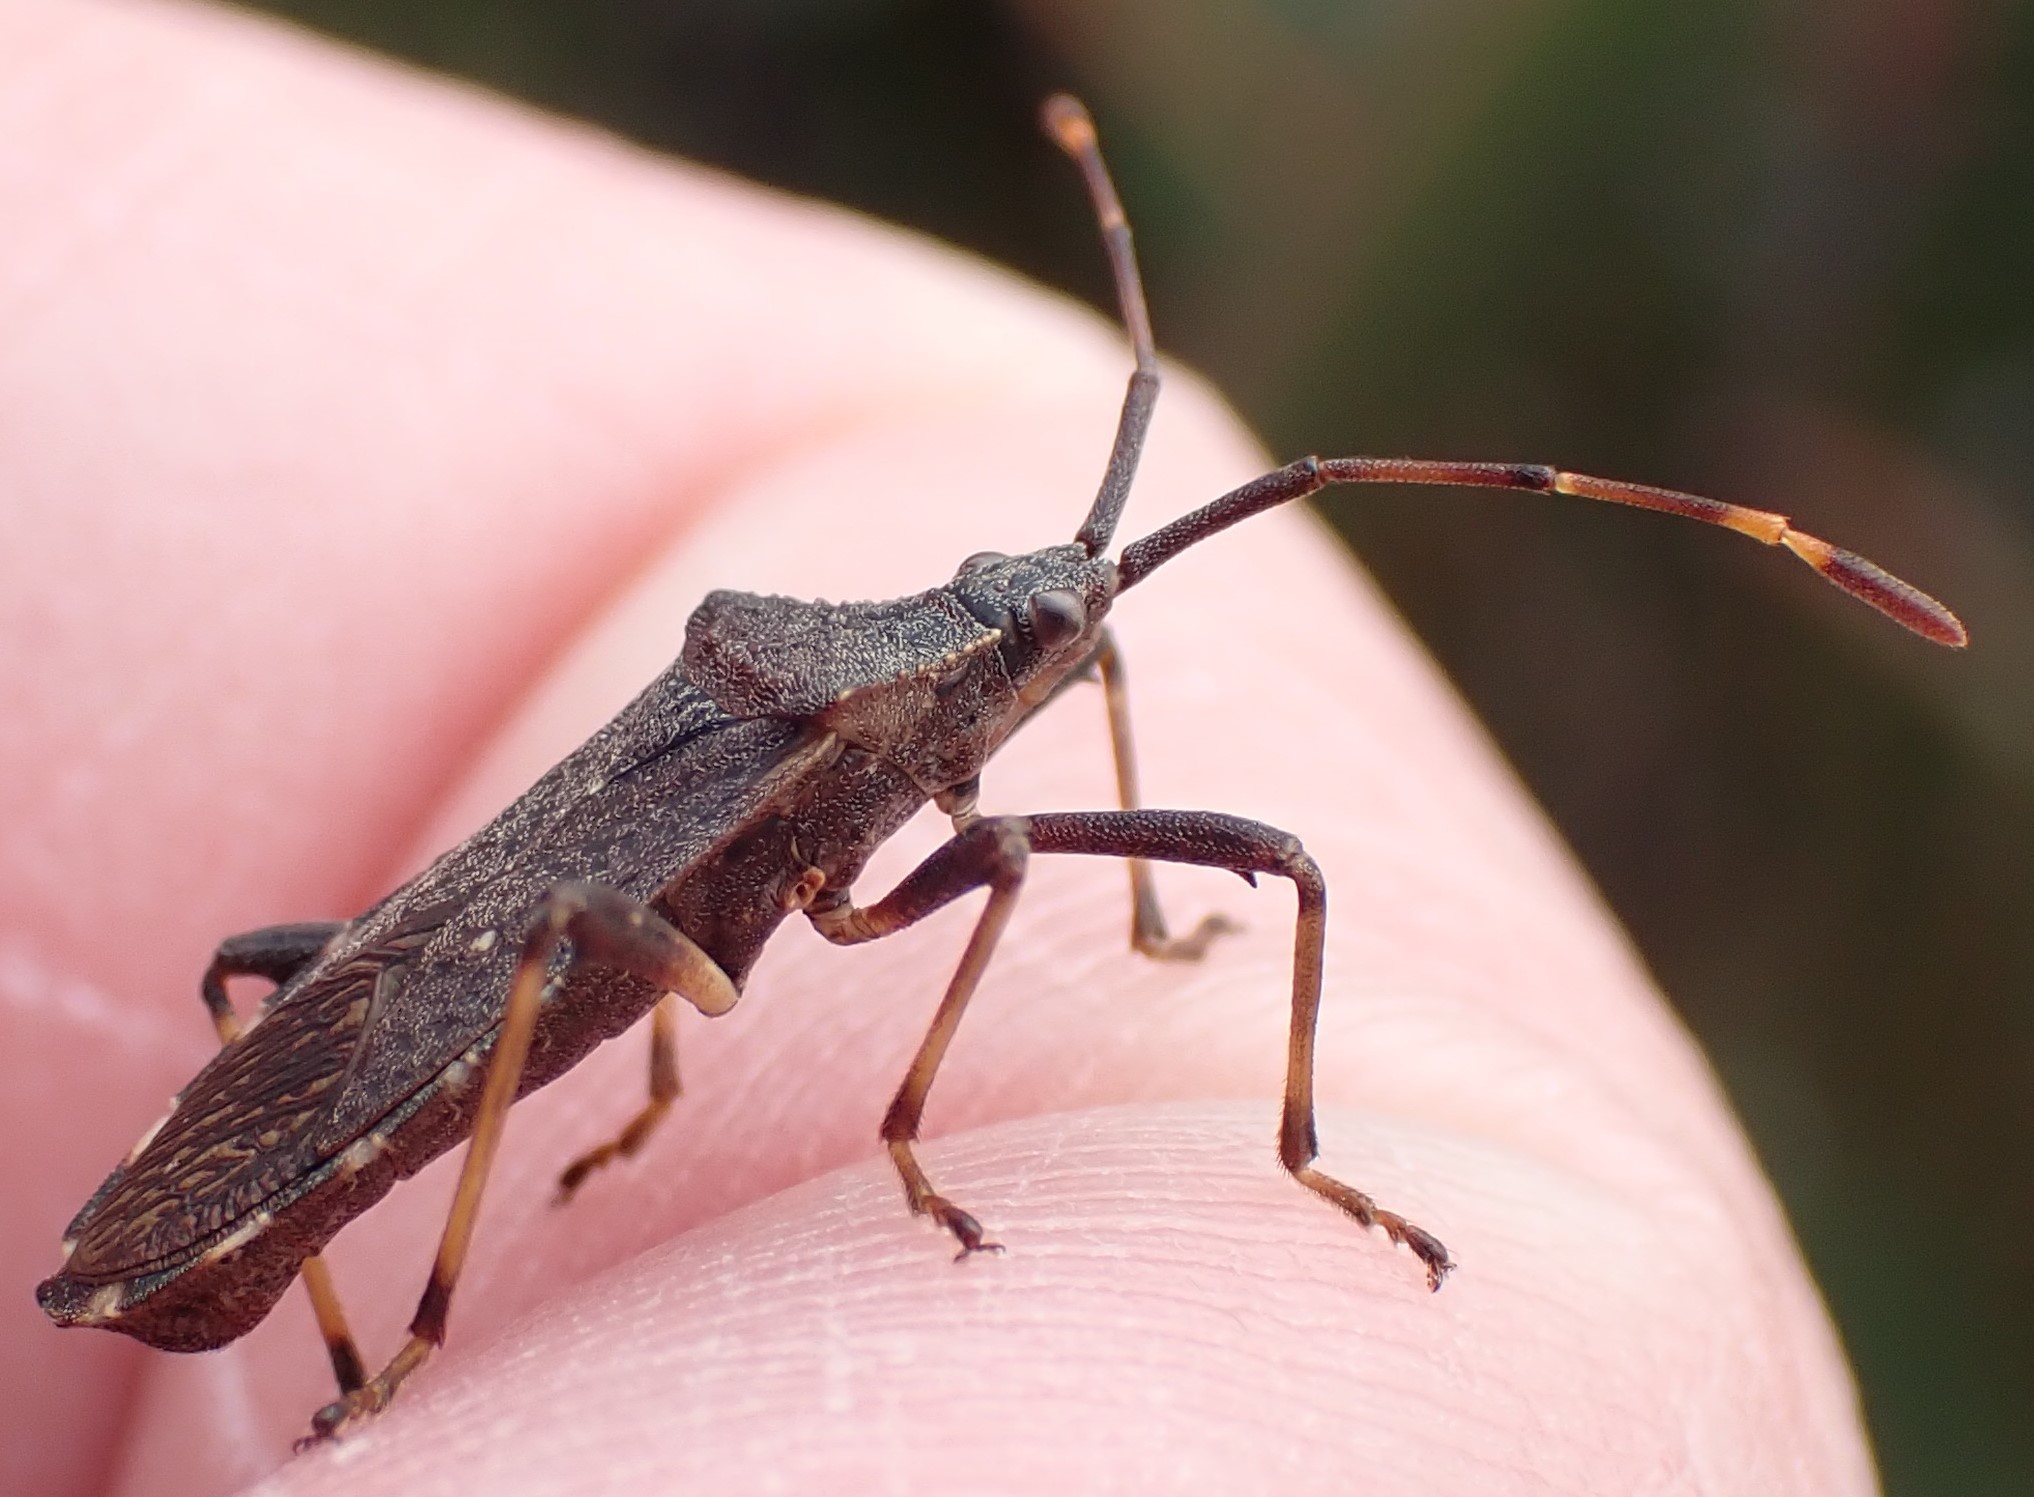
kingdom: Animalia
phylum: Arthropoda
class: Insecta
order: Hemiptera
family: Coreidae
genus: Gelonus
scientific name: Gelonus tasmanicus
